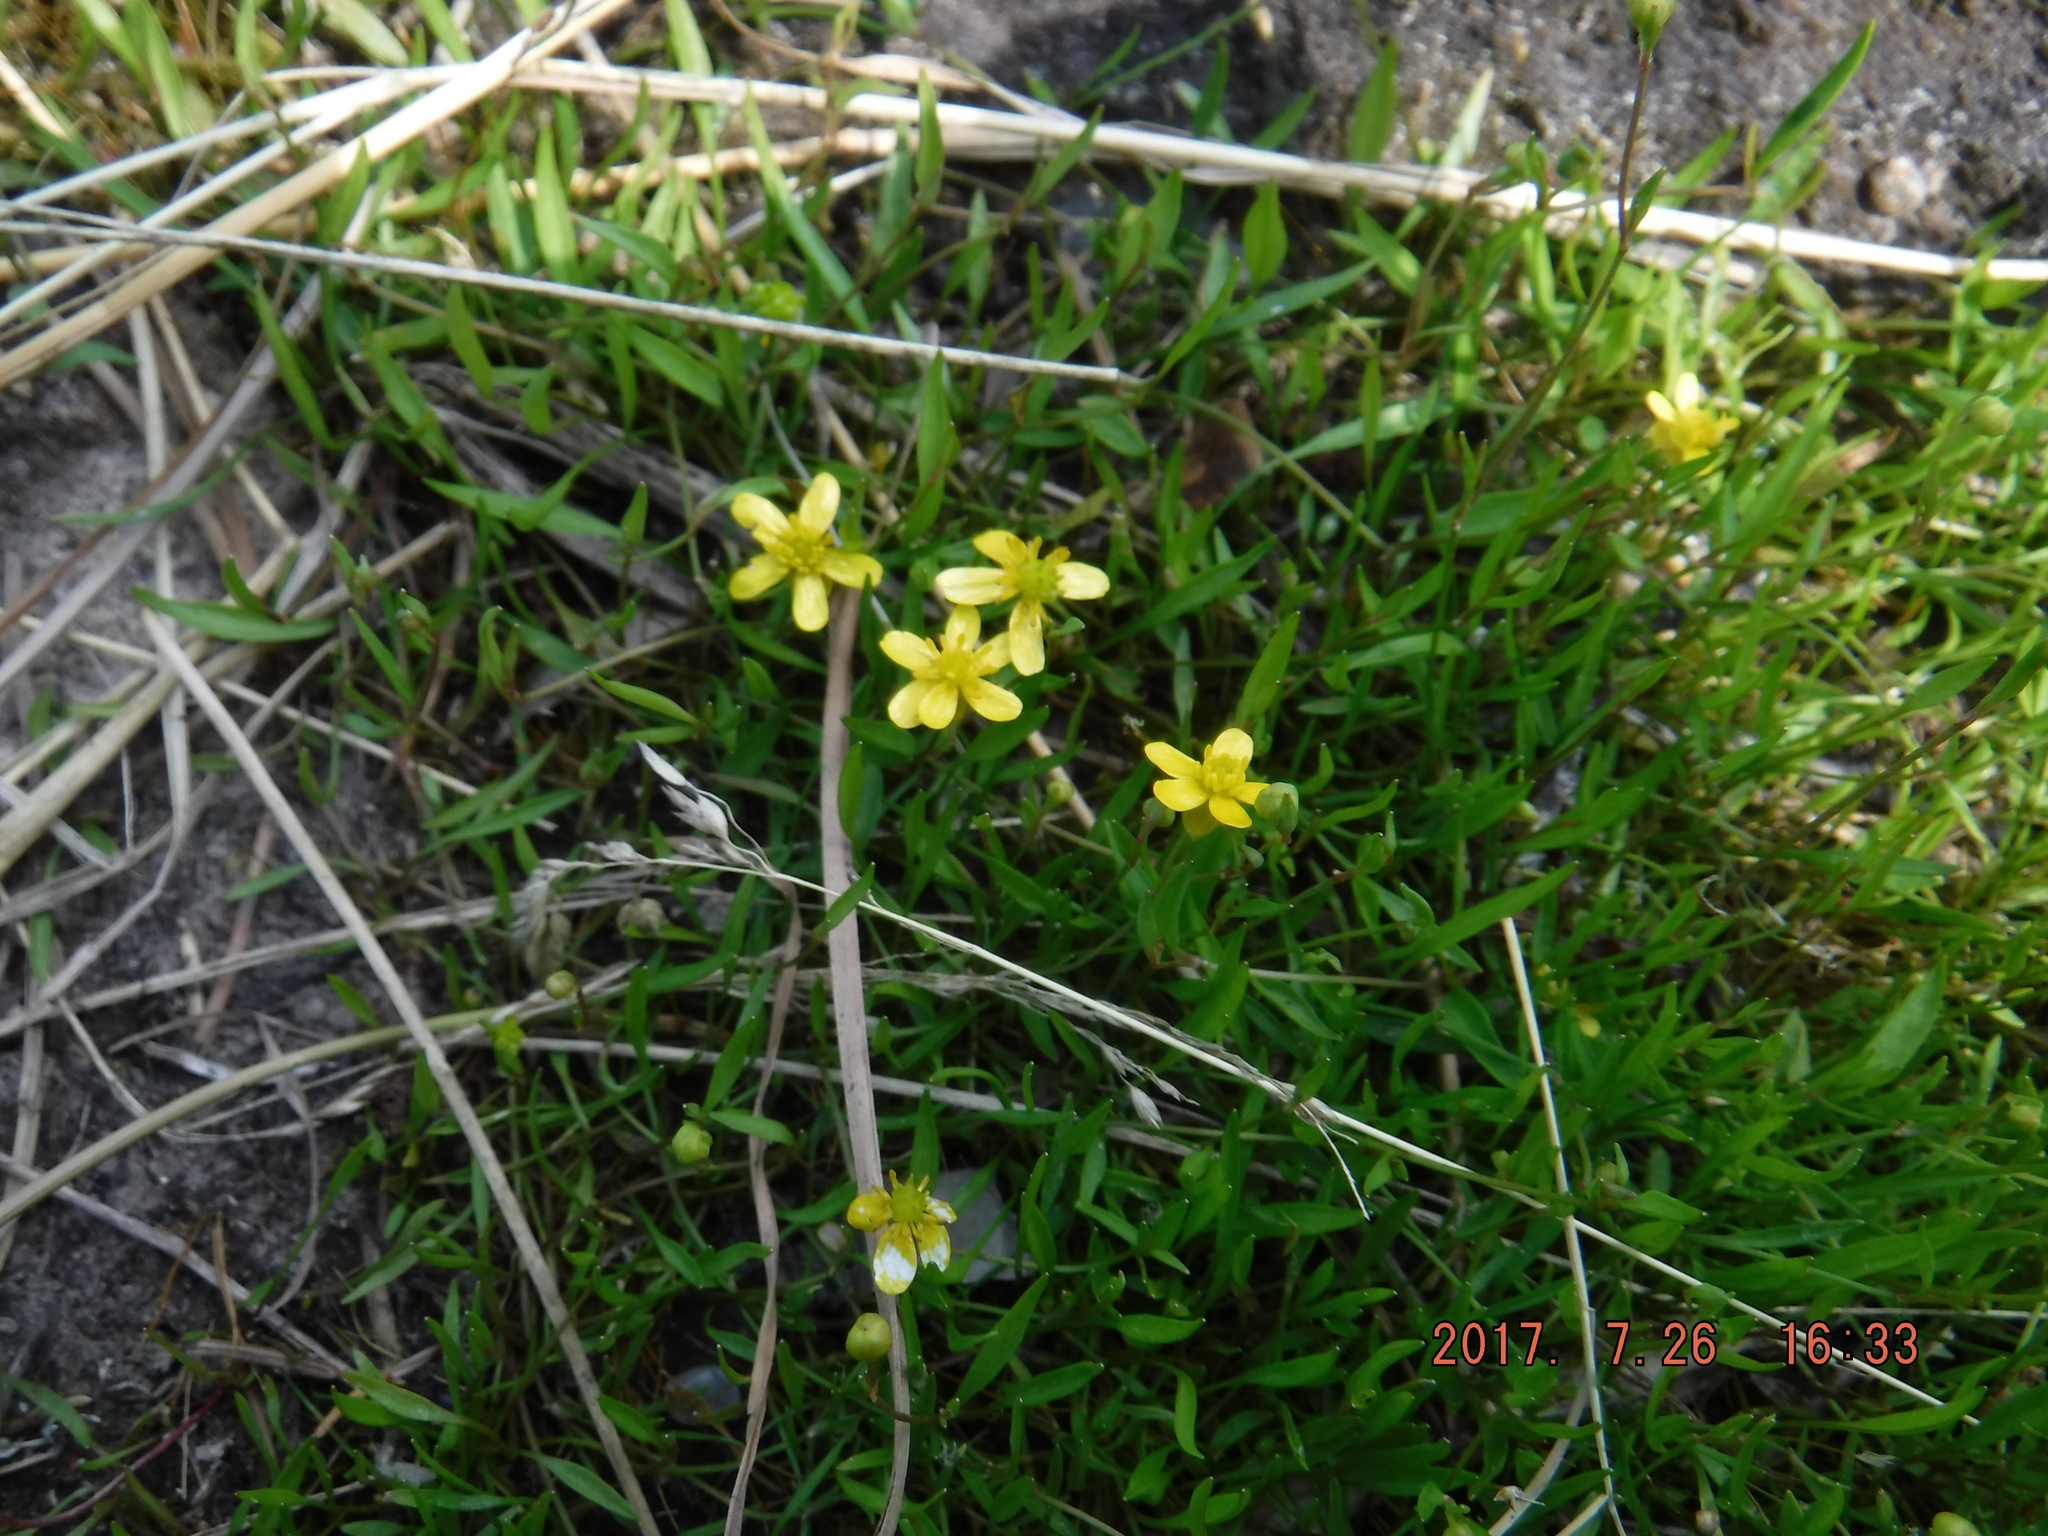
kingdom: Plantae
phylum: Tracheophyta
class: Magnoliopsida
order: Ranunculales
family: Ranunculaceae
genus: Ranunculus
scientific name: Ranunculus flammula
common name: Lesser spearwort
